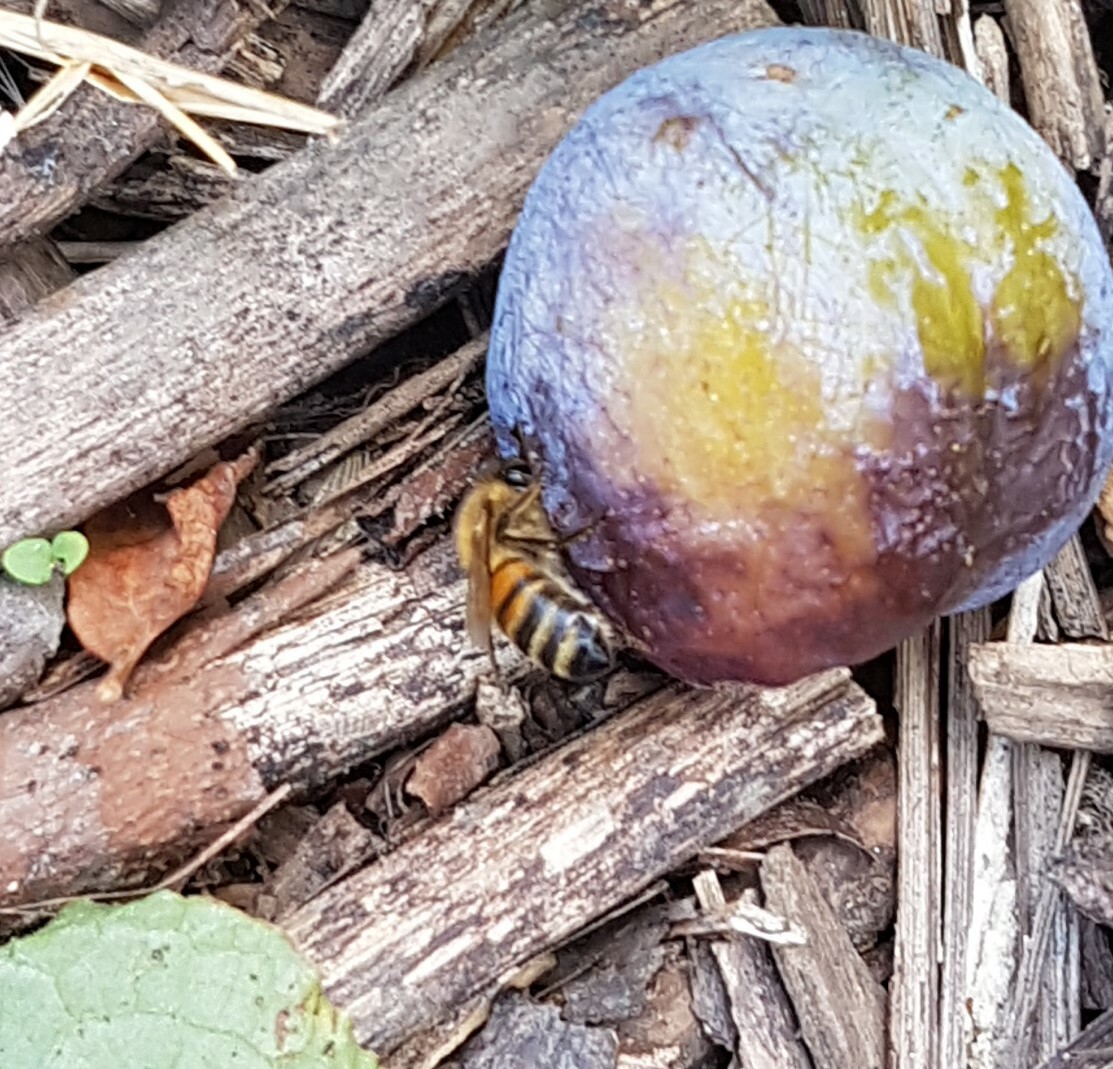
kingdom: Animalia
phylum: Arthropoda
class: Insecta
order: Hymenoptera
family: Apidae
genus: Apis
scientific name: Apis mellifera
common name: Honey bee
